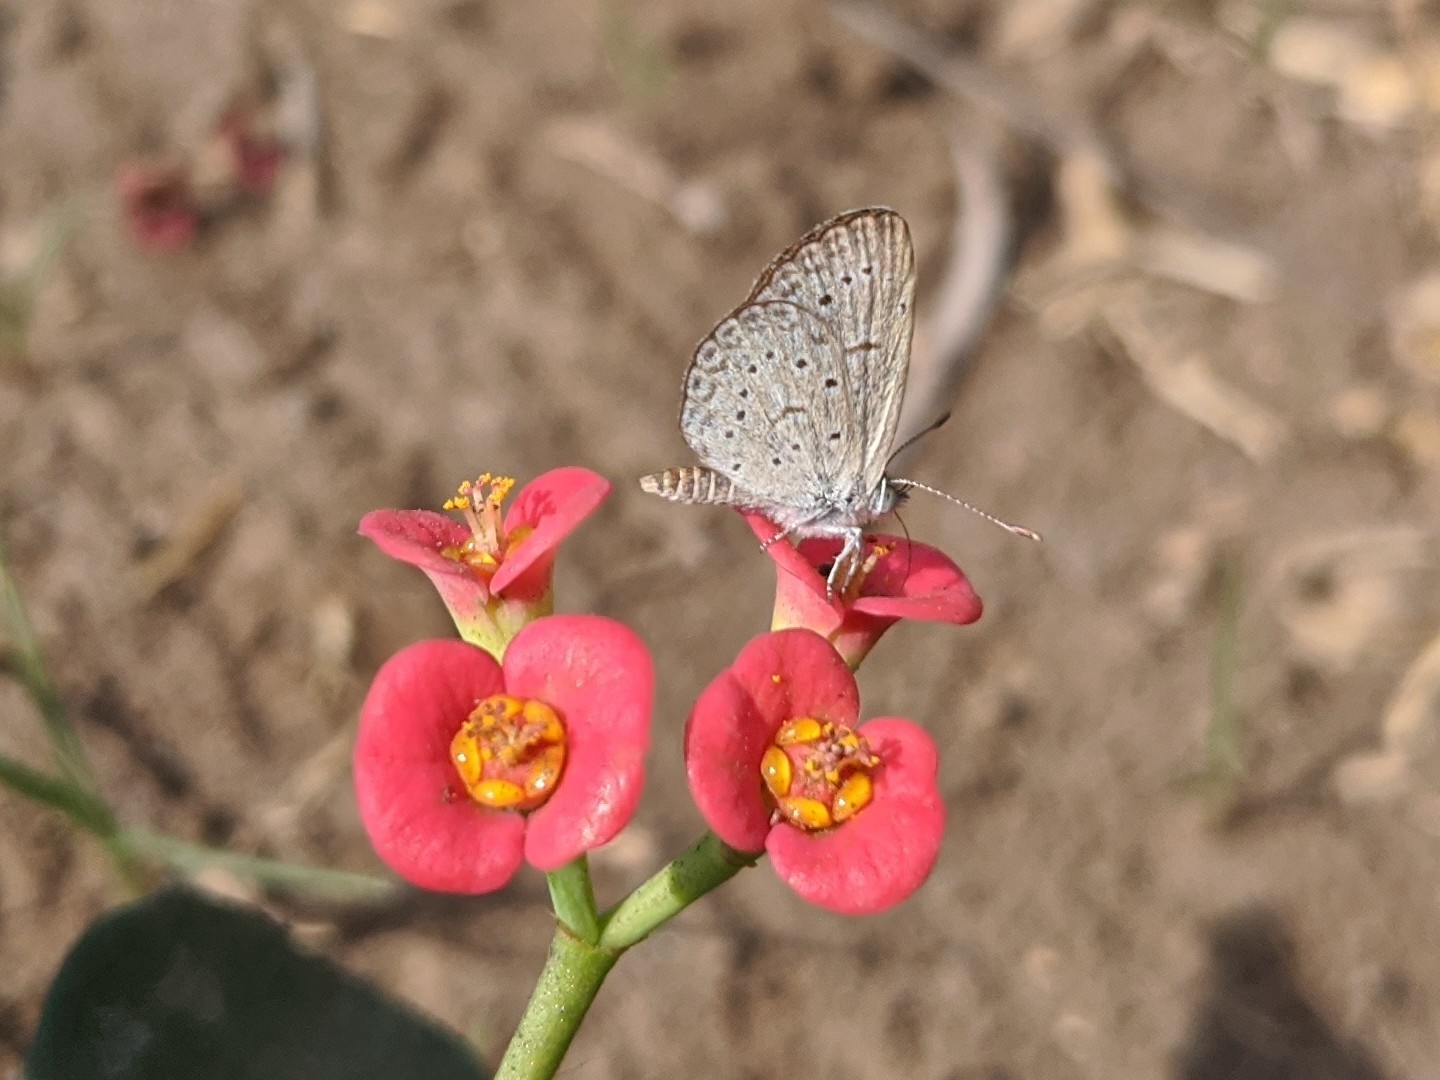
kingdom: Animalia
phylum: Arthropoda
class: Insecta
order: Lepidoptera
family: Lycaenidae
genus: Zizeeria
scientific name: Zizeeria knysna
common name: African grass blue
